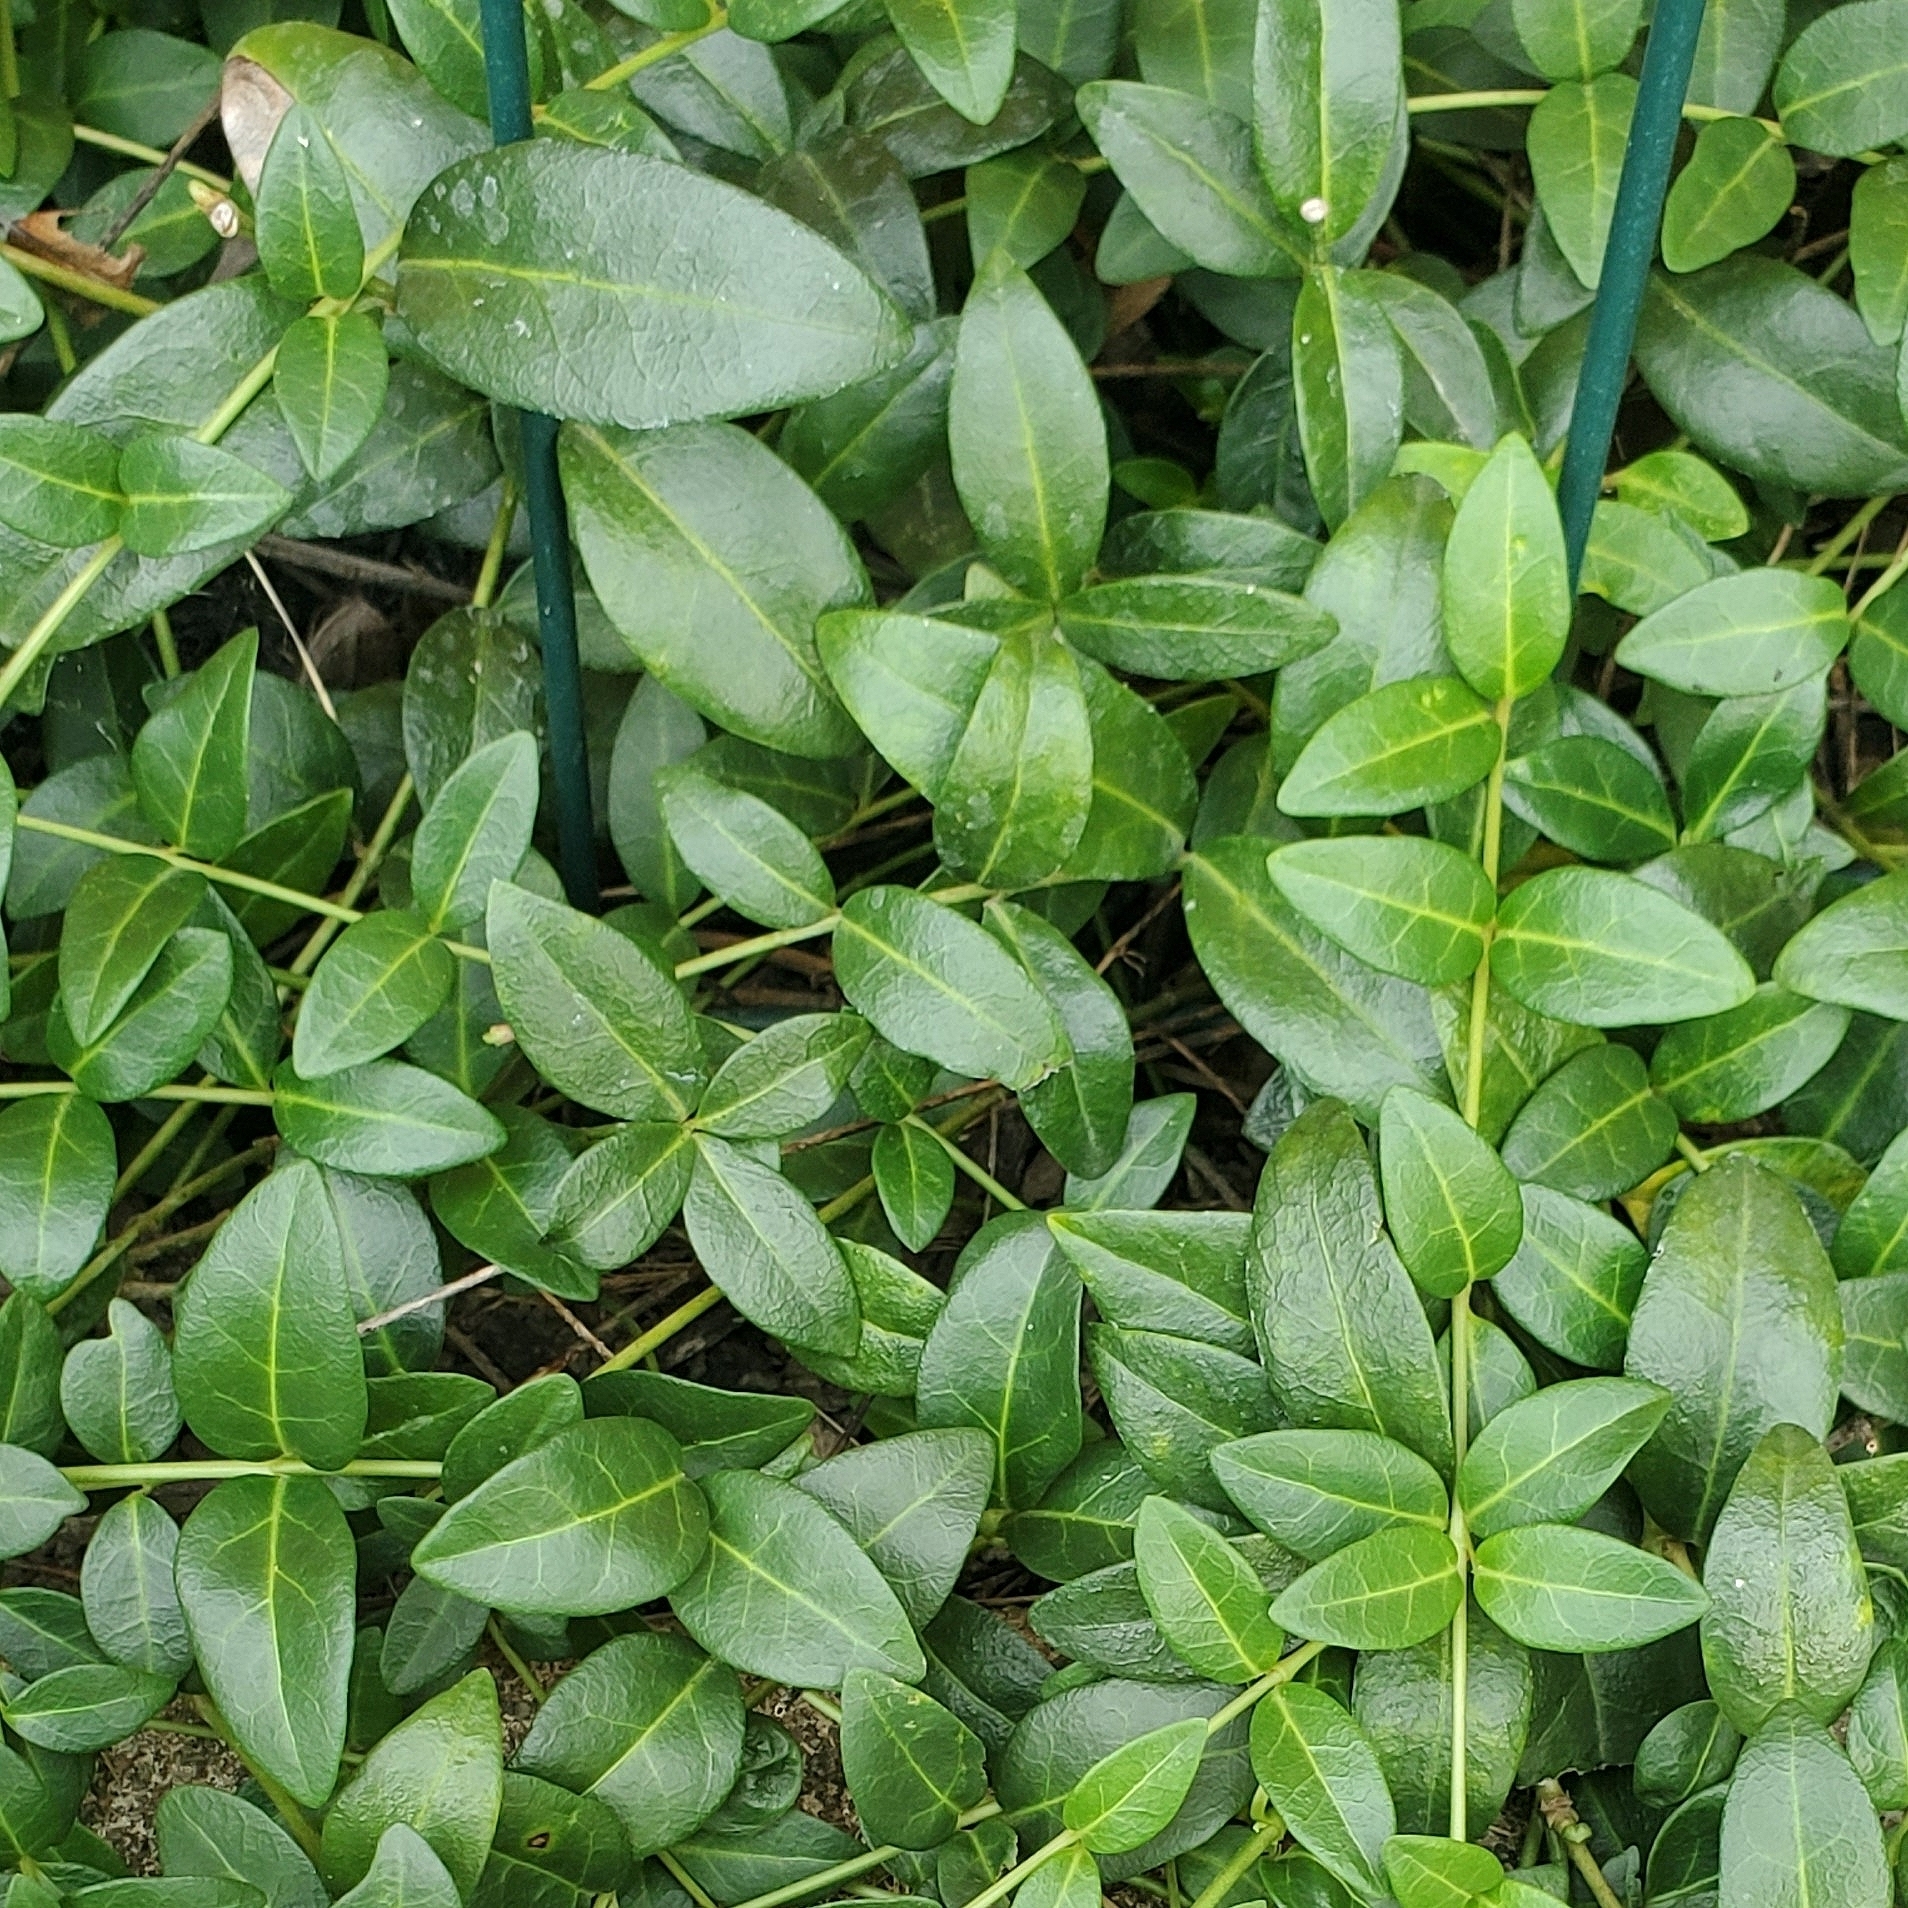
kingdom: Plantae
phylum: Tracheophyta
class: Magnoliopsida
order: Gentianales
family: Apocynaceae
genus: Vinca
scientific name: Vinca minor
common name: Lesser periwinkle
